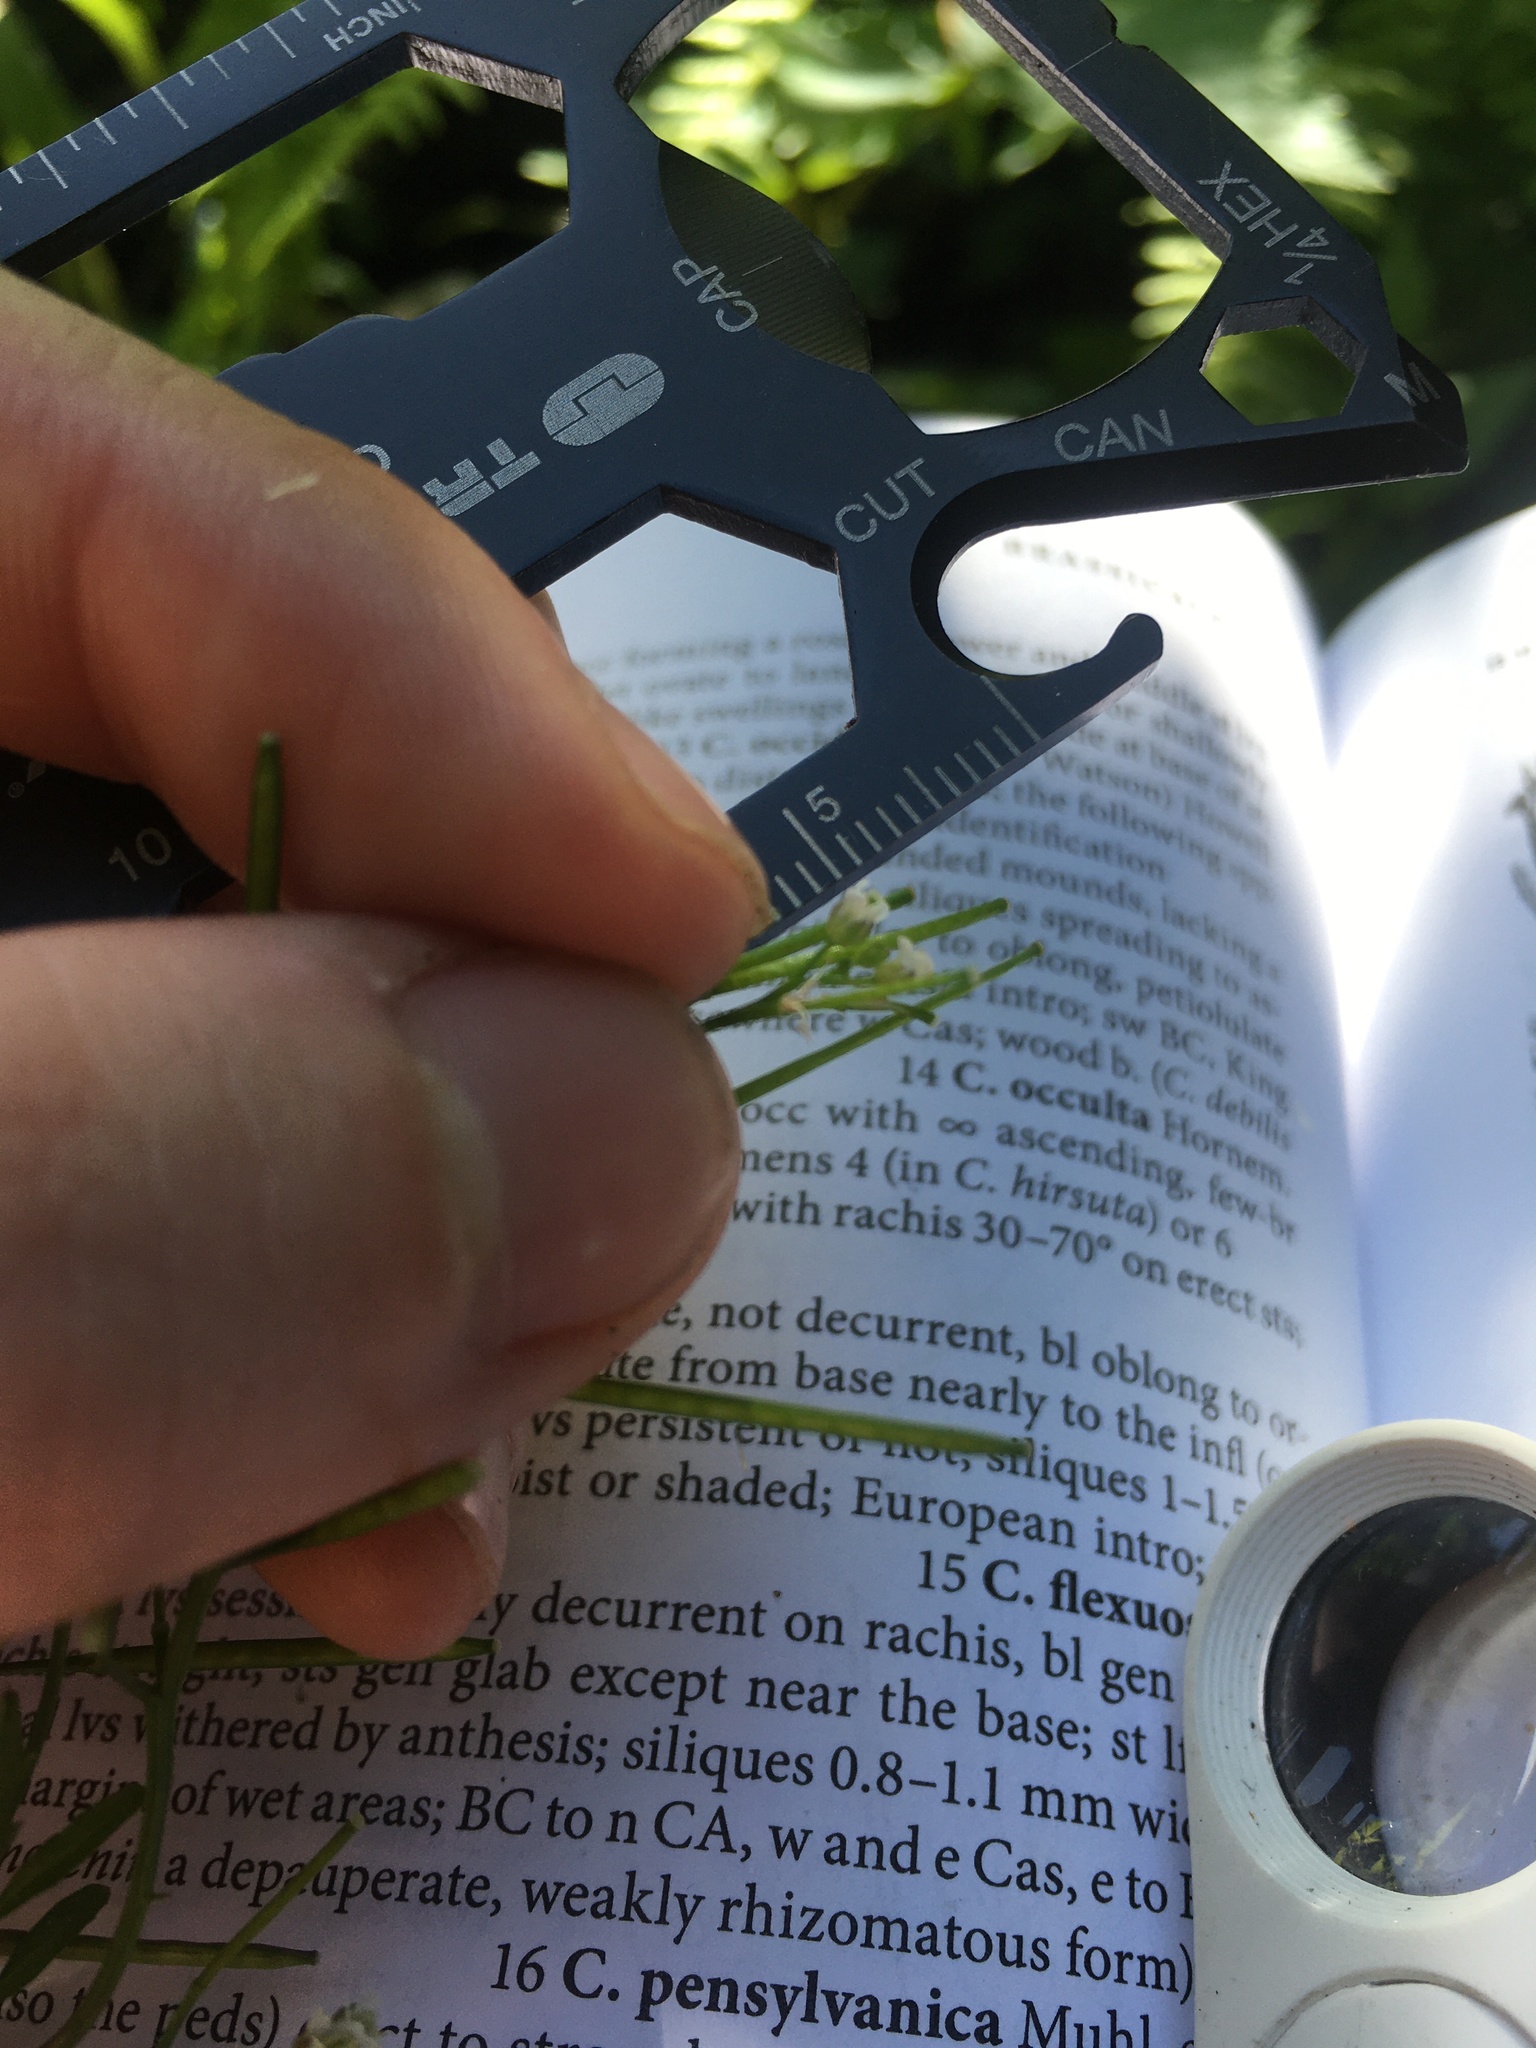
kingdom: Plantae
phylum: Tracheophyta
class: Magnoliopsida
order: Brassicales
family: Brassicaceae
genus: Cardamine
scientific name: Cardamine flexuosa
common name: Woodland bittercress
